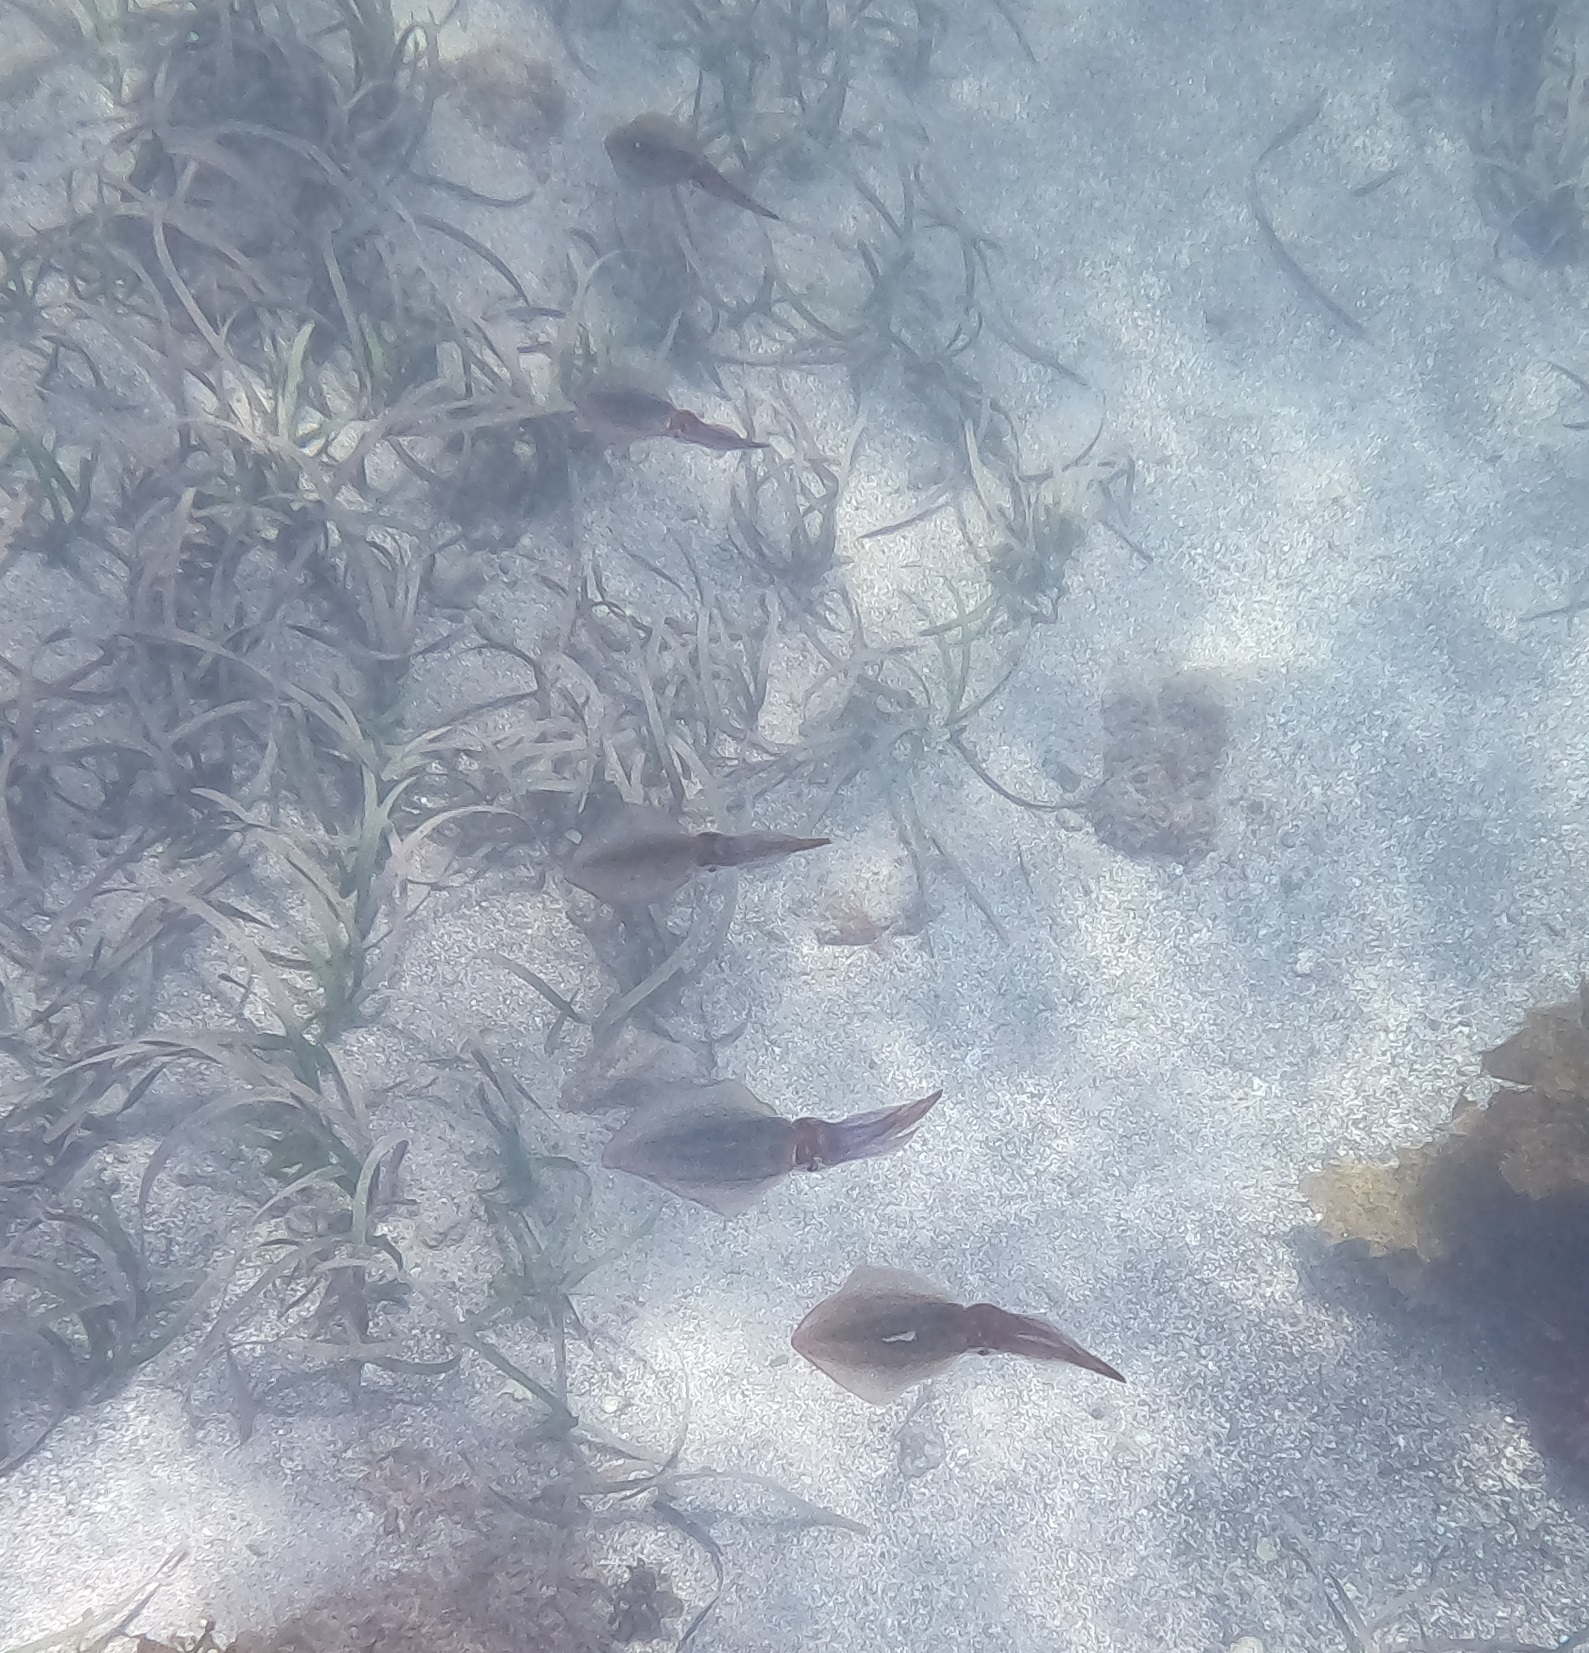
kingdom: Animalia
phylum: Mollusca
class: Cephalopoda
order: Myopsida
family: Loliginidae
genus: Sepioteuthis
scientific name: Sepioteuthis australis
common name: Southern reef squid
